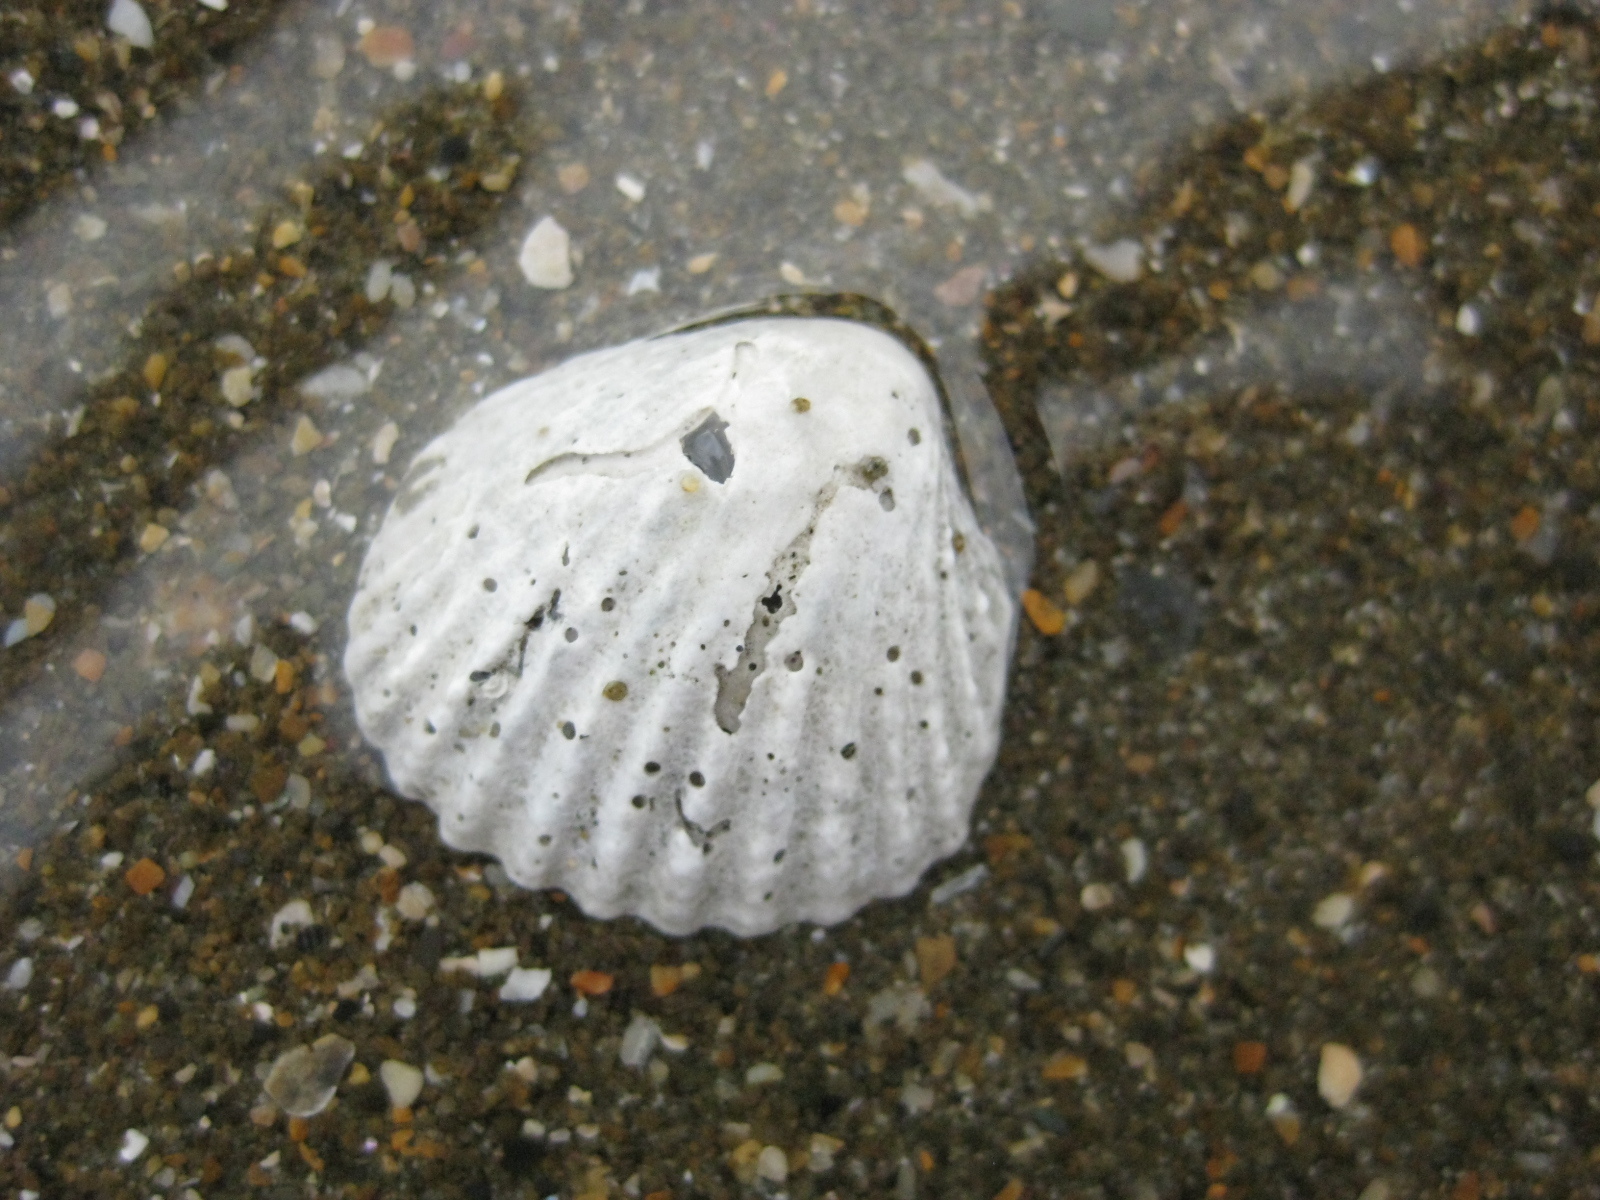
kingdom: Animalia
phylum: Mollusca
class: Bivalvia
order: Carditida
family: Carditidae
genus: Purpurocardia
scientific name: Purpurocardia purpurata
